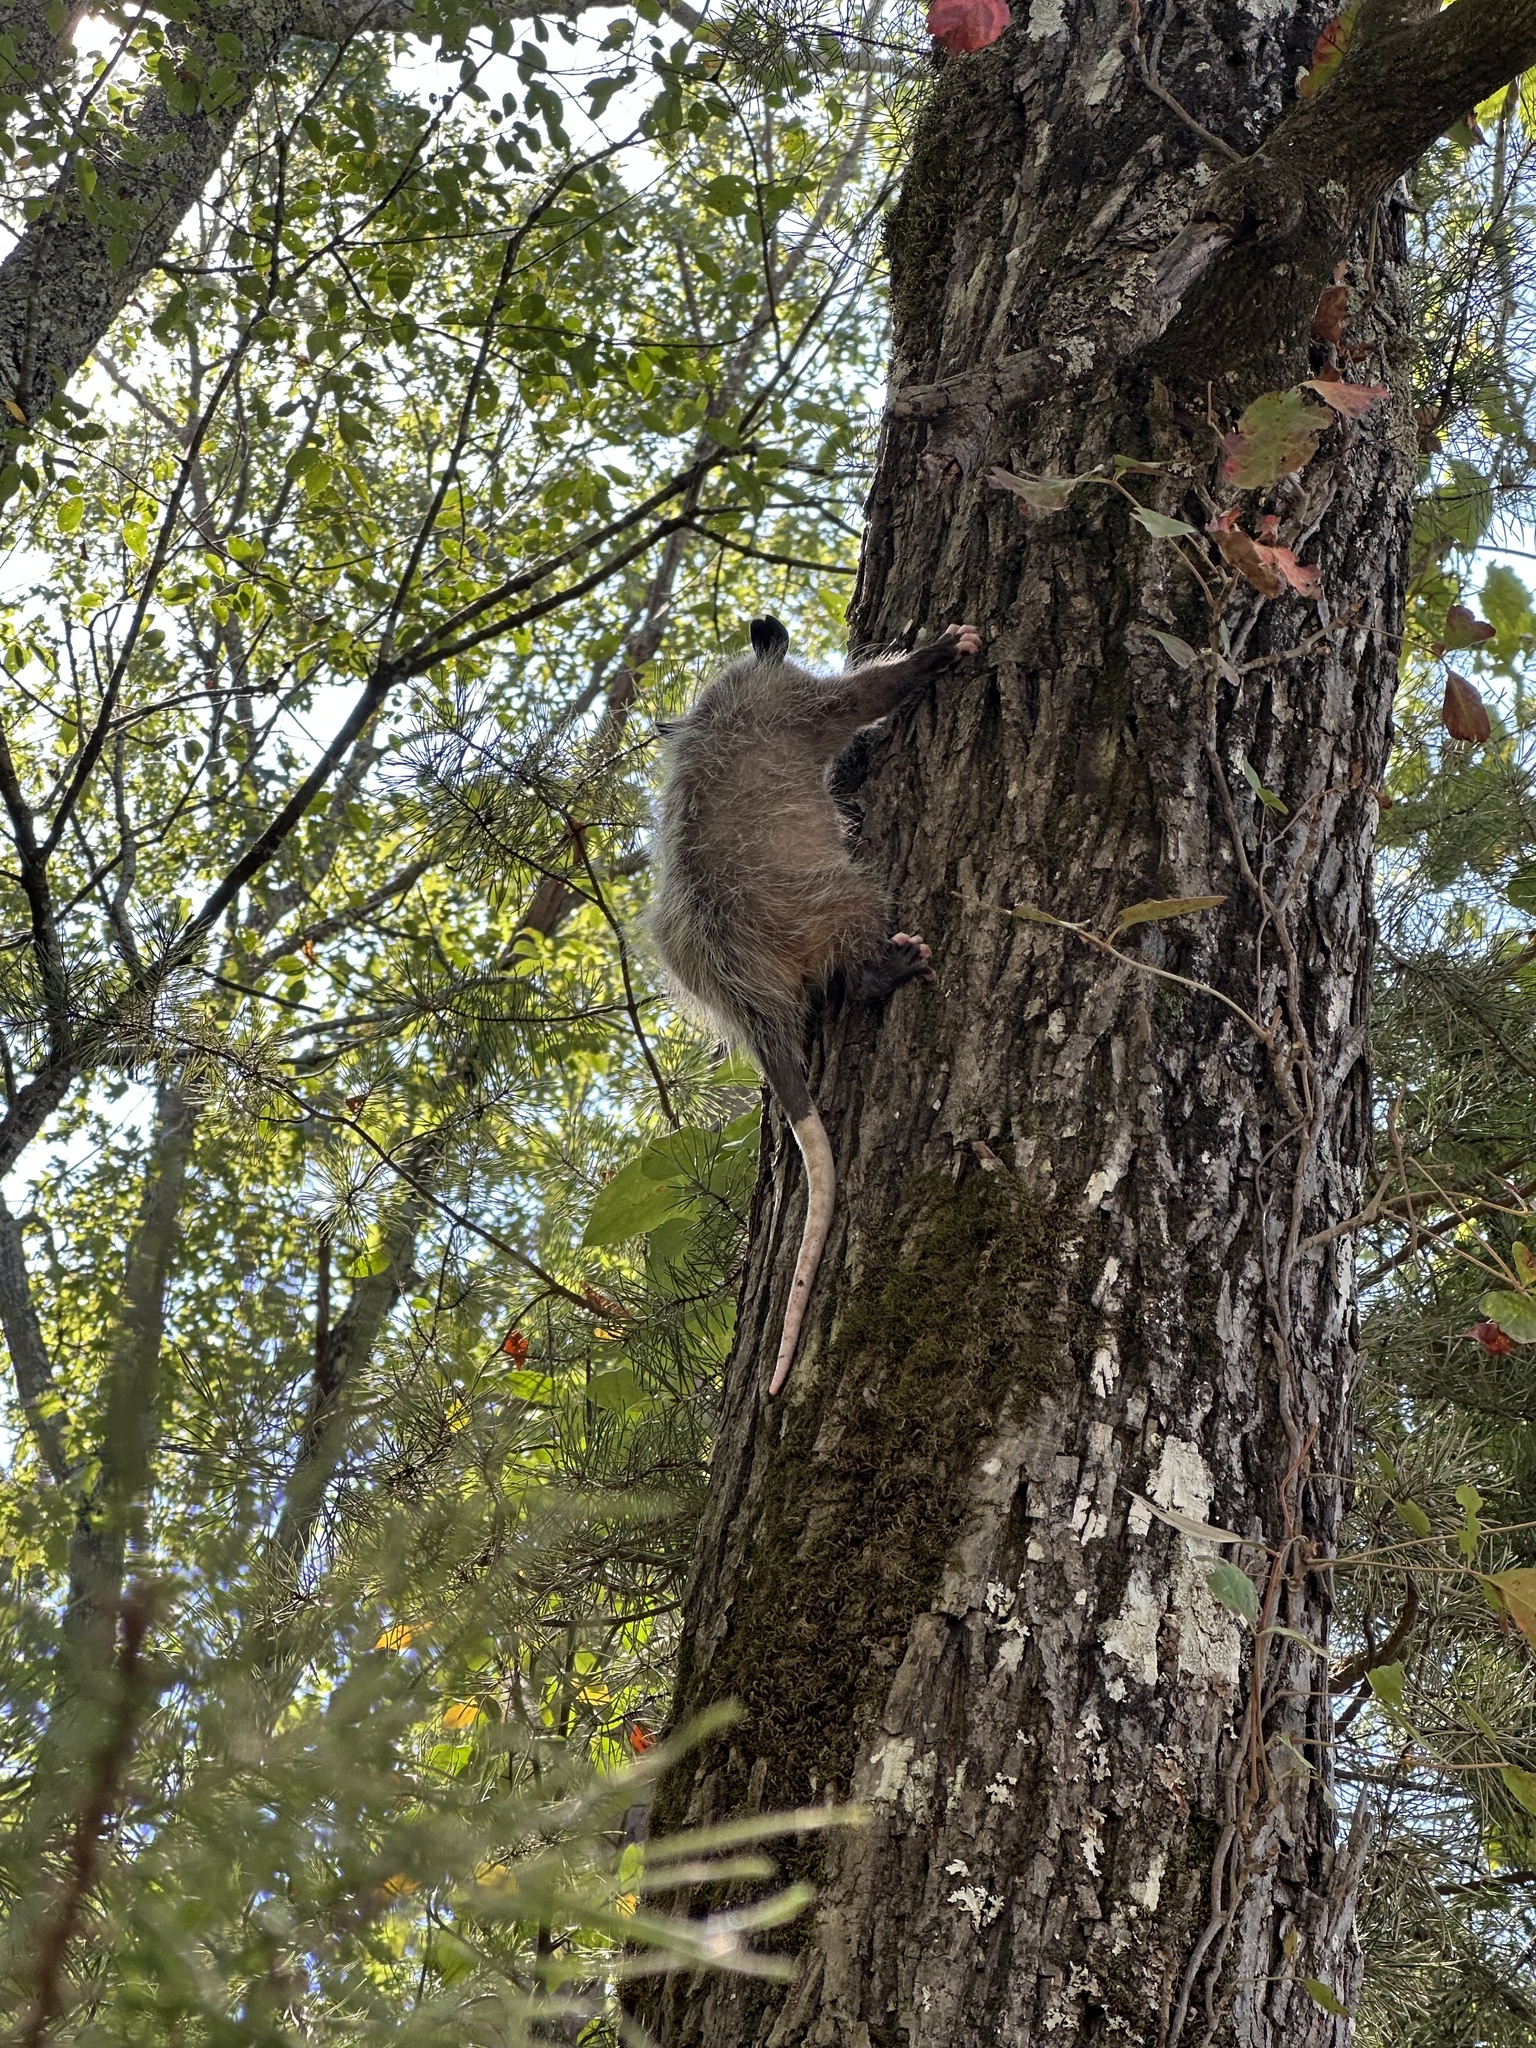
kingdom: Animalia
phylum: Chordata
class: Mammalia
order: Didelphimorphia
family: Didelphidae
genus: Didelphis
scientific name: Didelphis virginiana
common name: Virginia opossum
